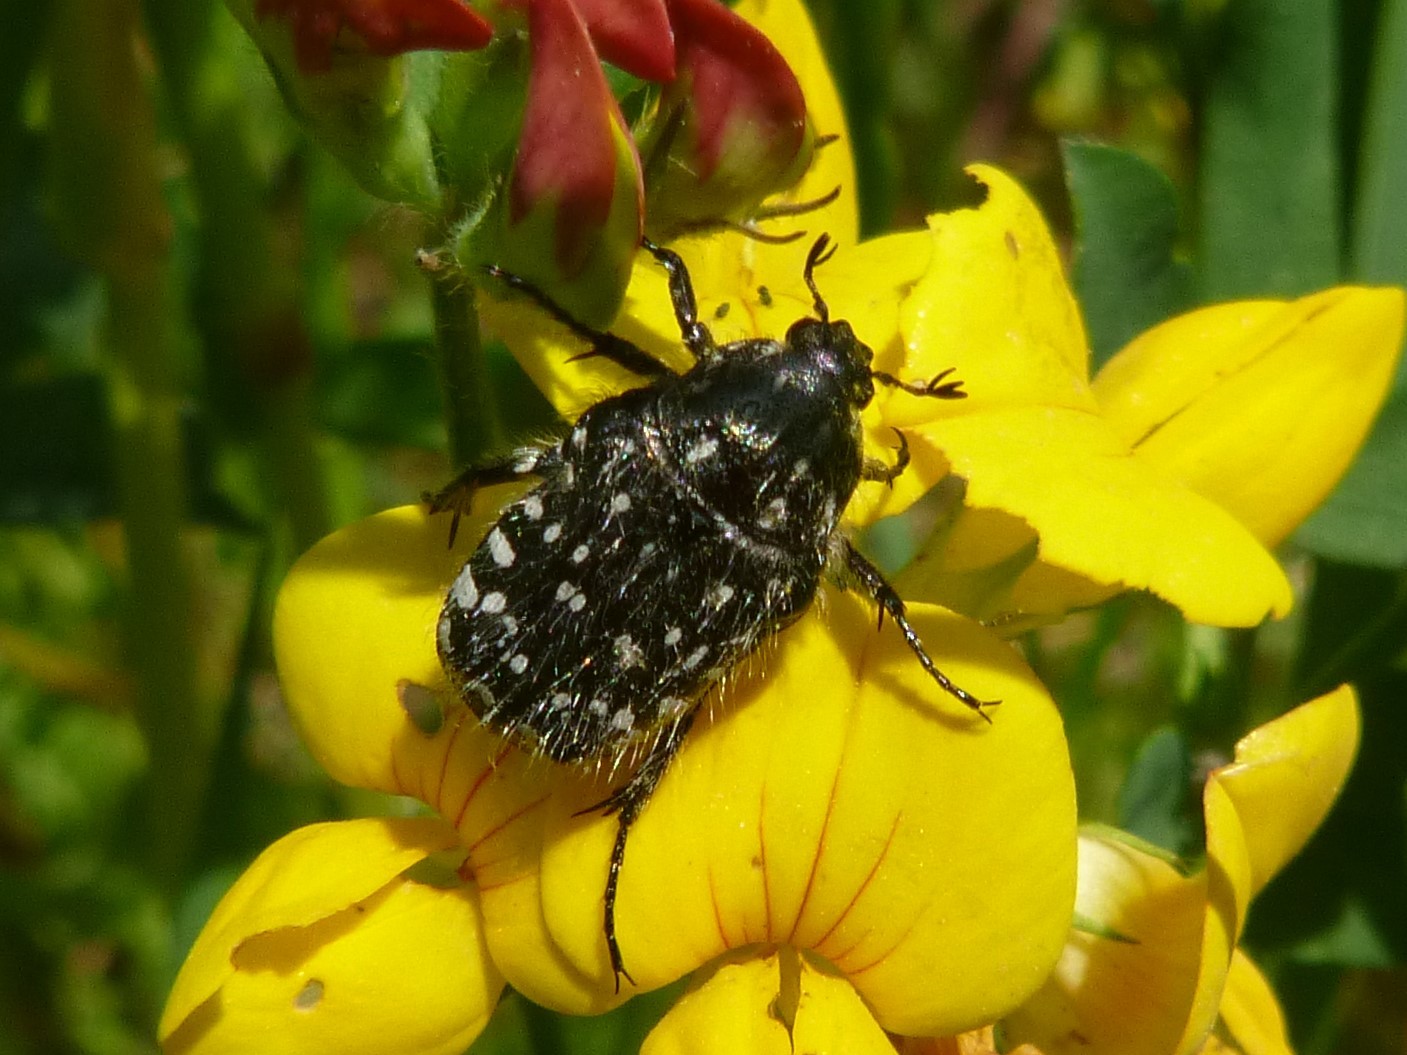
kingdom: Animalia
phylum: Arthropoda
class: Insecta
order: Coleoptera
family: Scarabaeidae
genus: Oxythyrea
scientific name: Oxythyrea funesta
